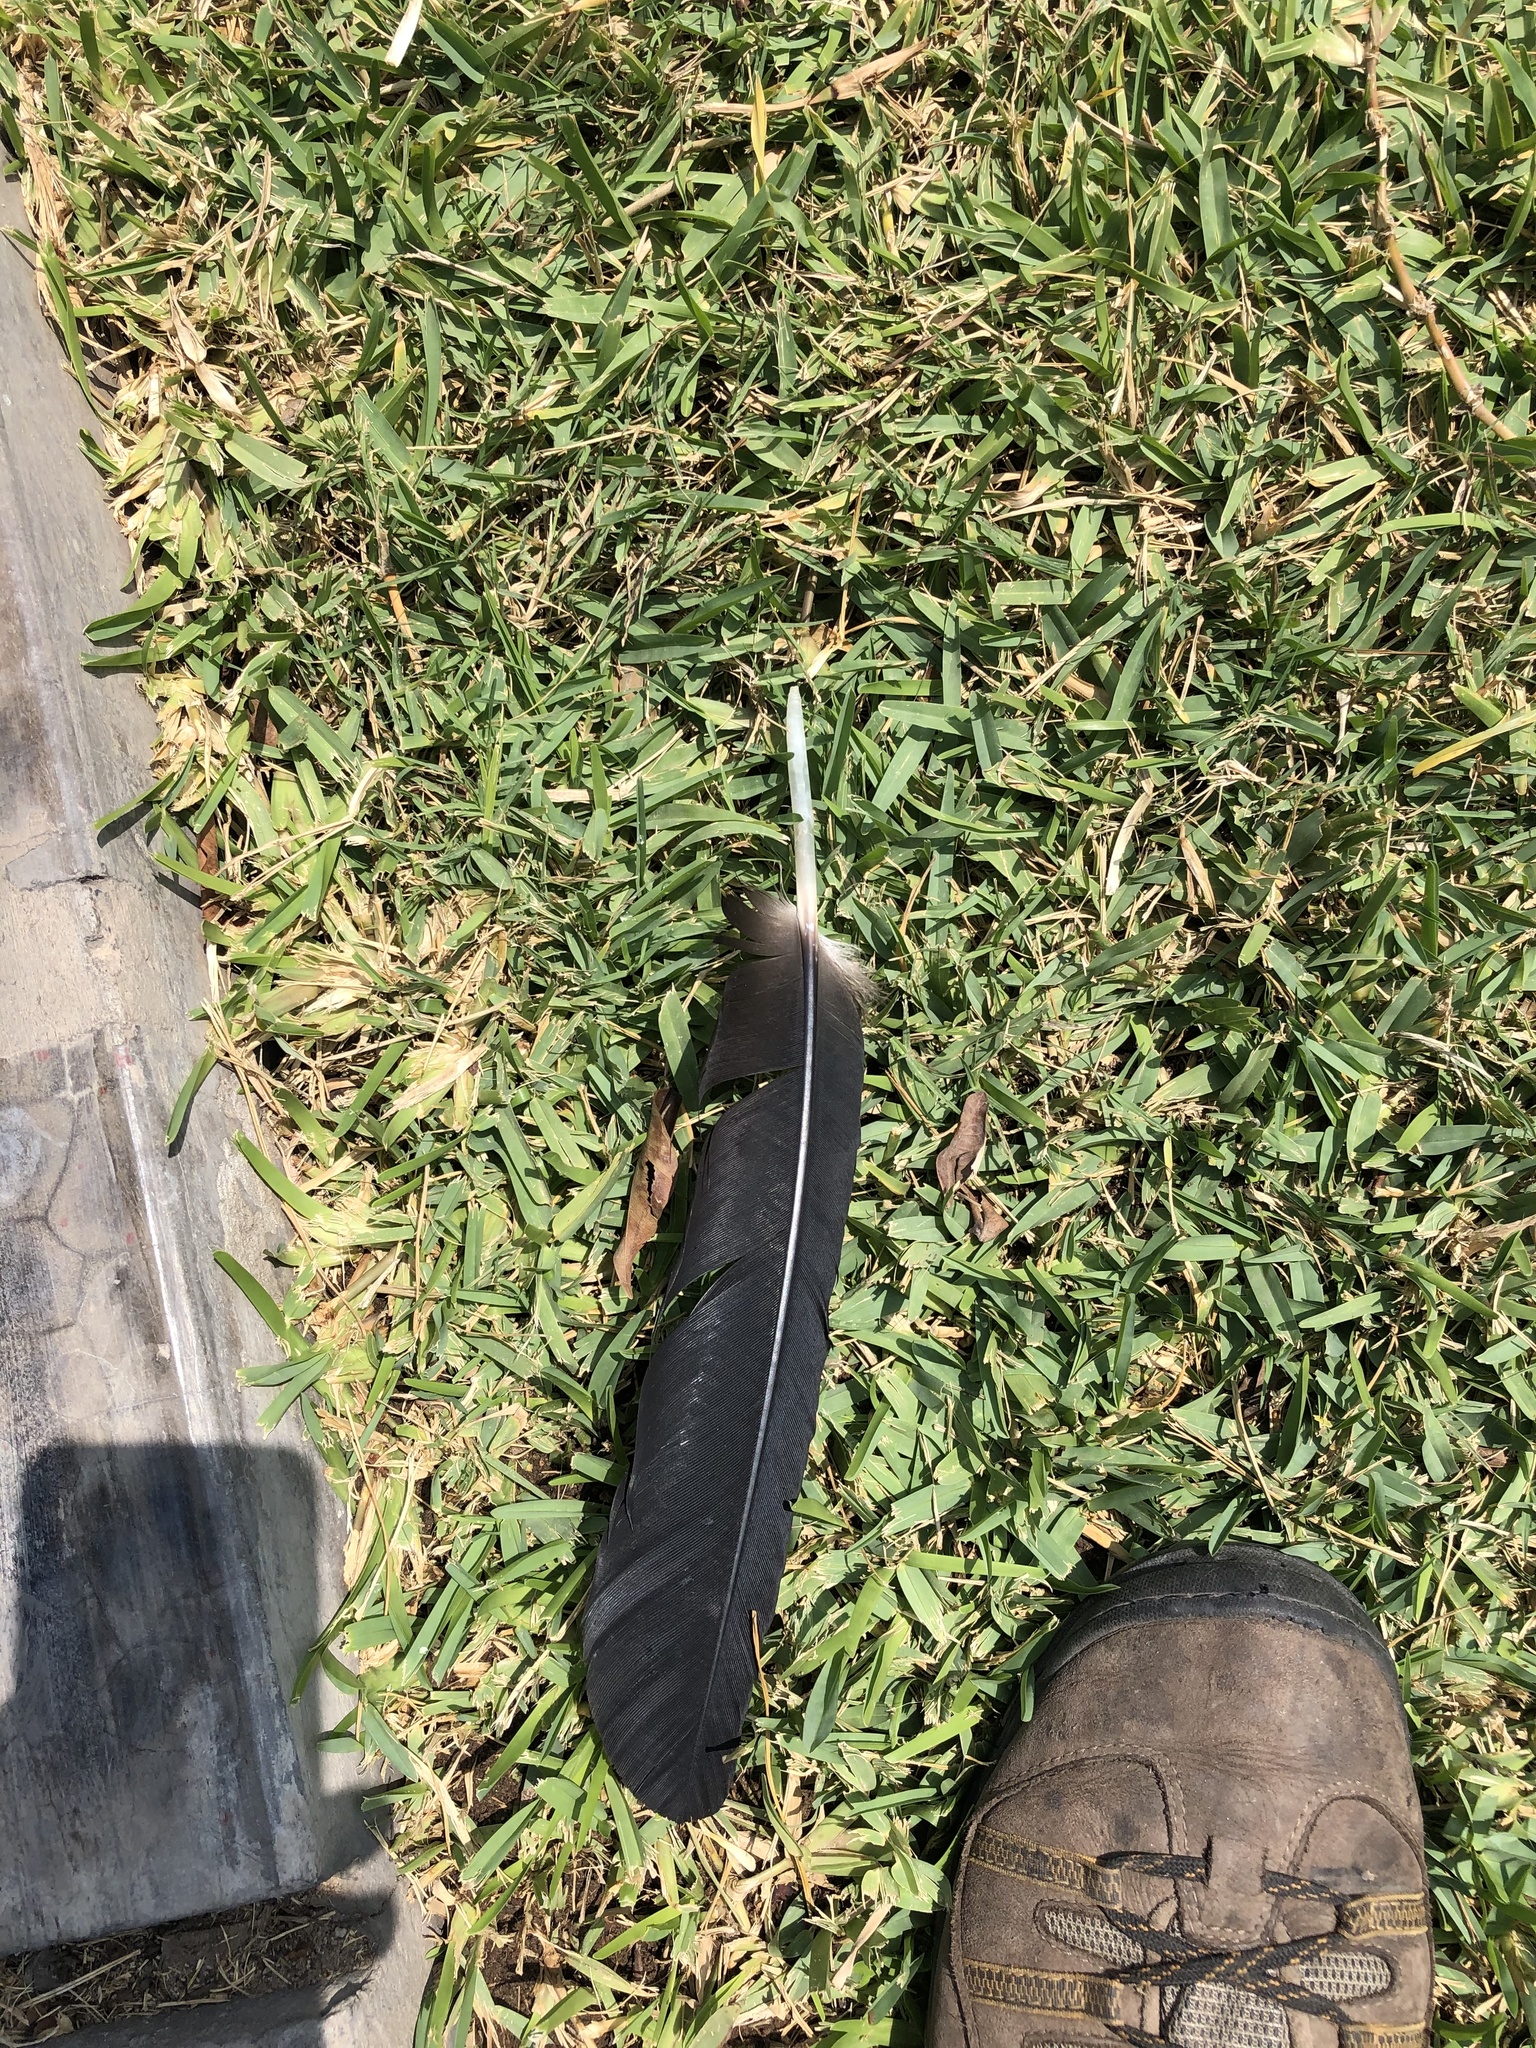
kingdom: Animalia
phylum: Chordata
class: Aves
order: Accipitriformes
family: Cathartidae
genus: Coragyps
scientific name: Coragyps atratus
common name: Black vulture
